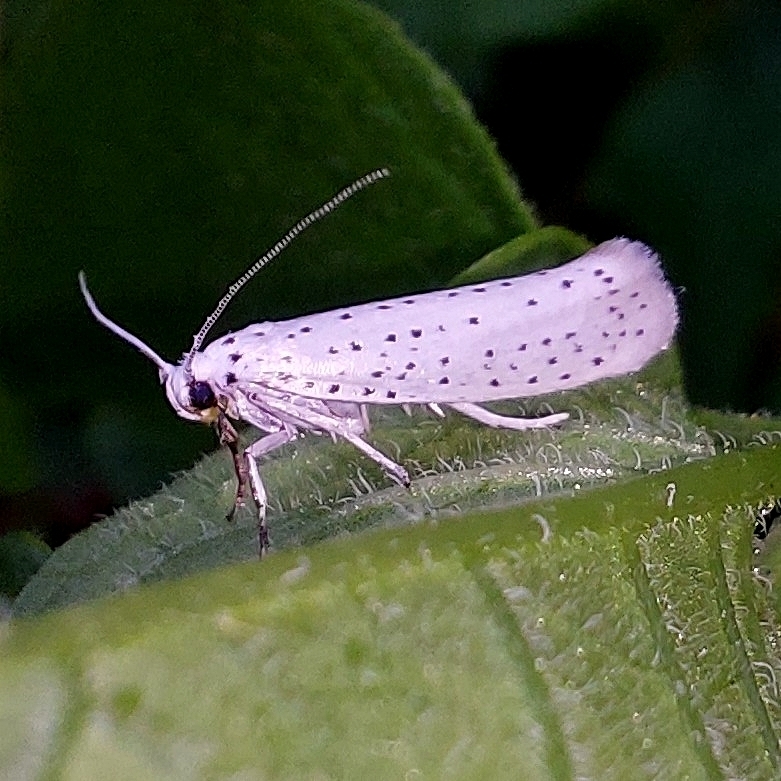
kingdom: Animalia
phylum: Arthropoda
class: Insecta
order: Lepidoptera
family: Yponomeutidae
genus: Yponomeuta
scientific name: Yponomeuta evonymella
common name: Bird-cherry ermine
